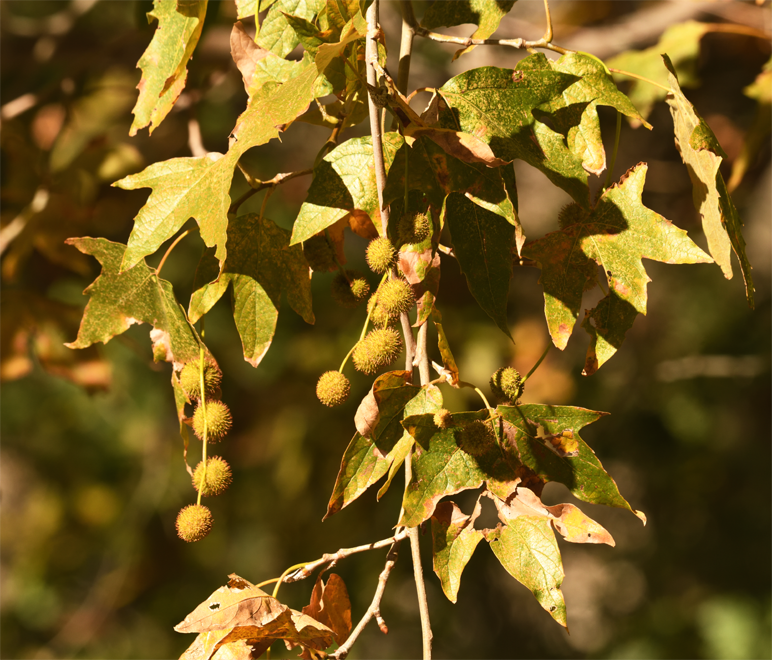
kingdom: Plantae
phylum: Tracheophyta
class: Magnoliopsida
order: Proteales
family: Platanaceae
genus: Platanus
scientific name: Platanus racemosa
